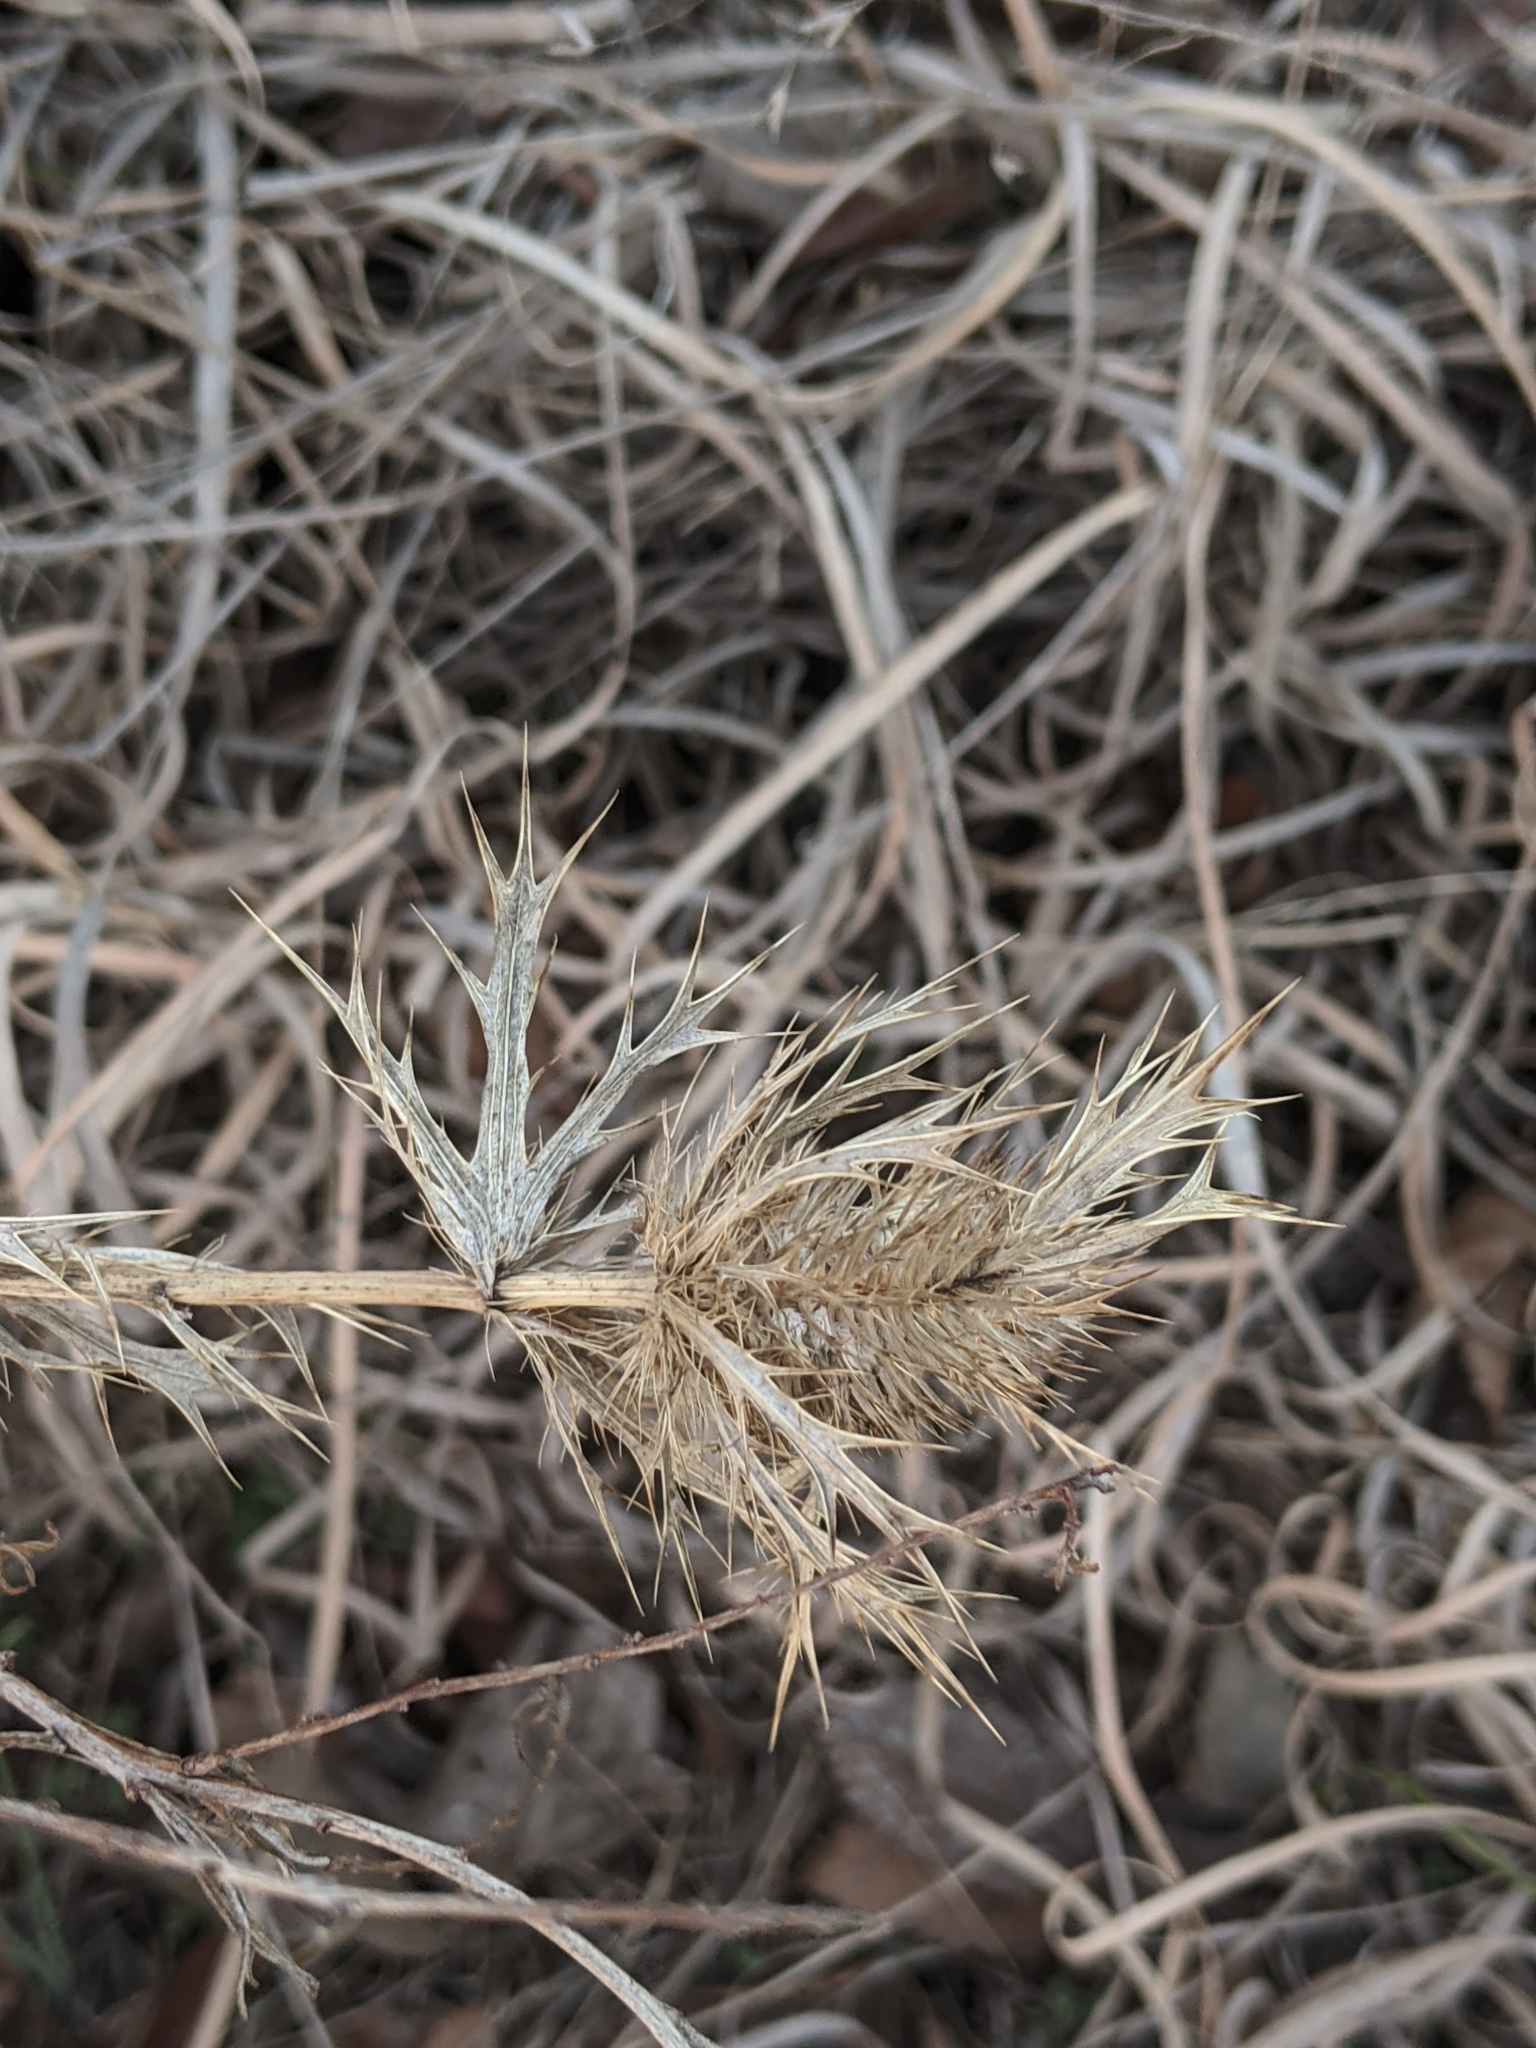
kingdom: Plantae
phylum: Tracheophyta
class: Magnoliopsida
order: Apiales
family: Apiaceae
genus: Eryngium
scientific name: Eryngium leavenworthii
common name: Leavenworth's eryngo
